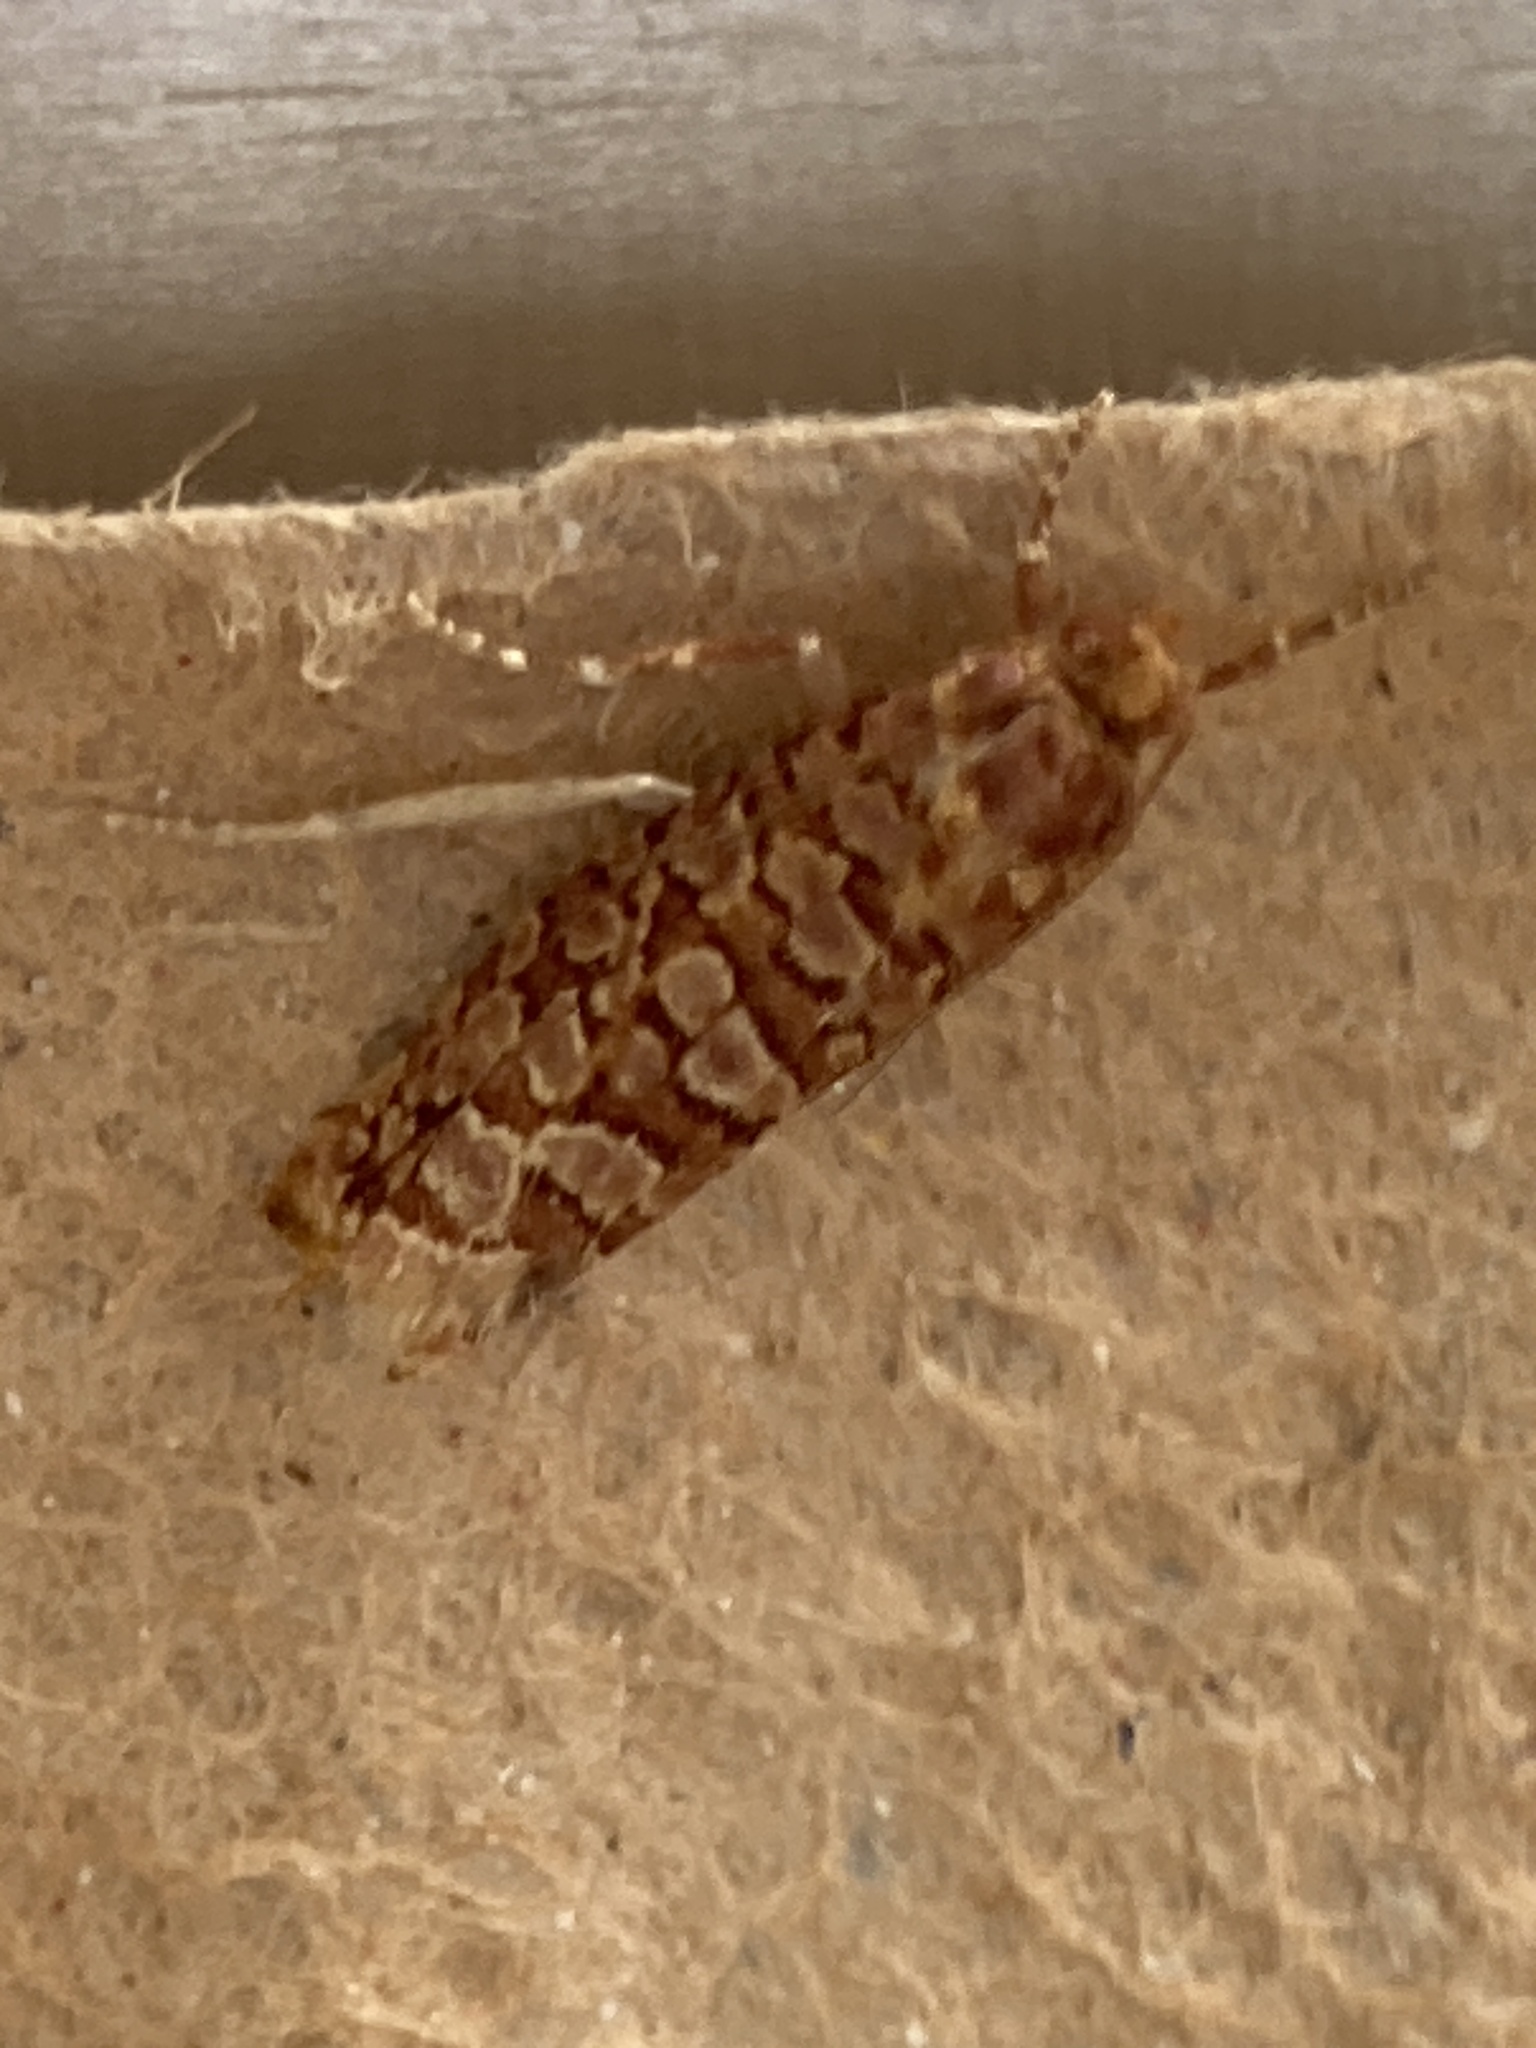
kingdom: Animalia
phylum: Arthropoda
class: Insecta
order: Lepidoptera
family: Tortricidae
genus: Lozotaeniodes
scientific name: Lozotaeniodes formosana
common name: Orange pine twist
